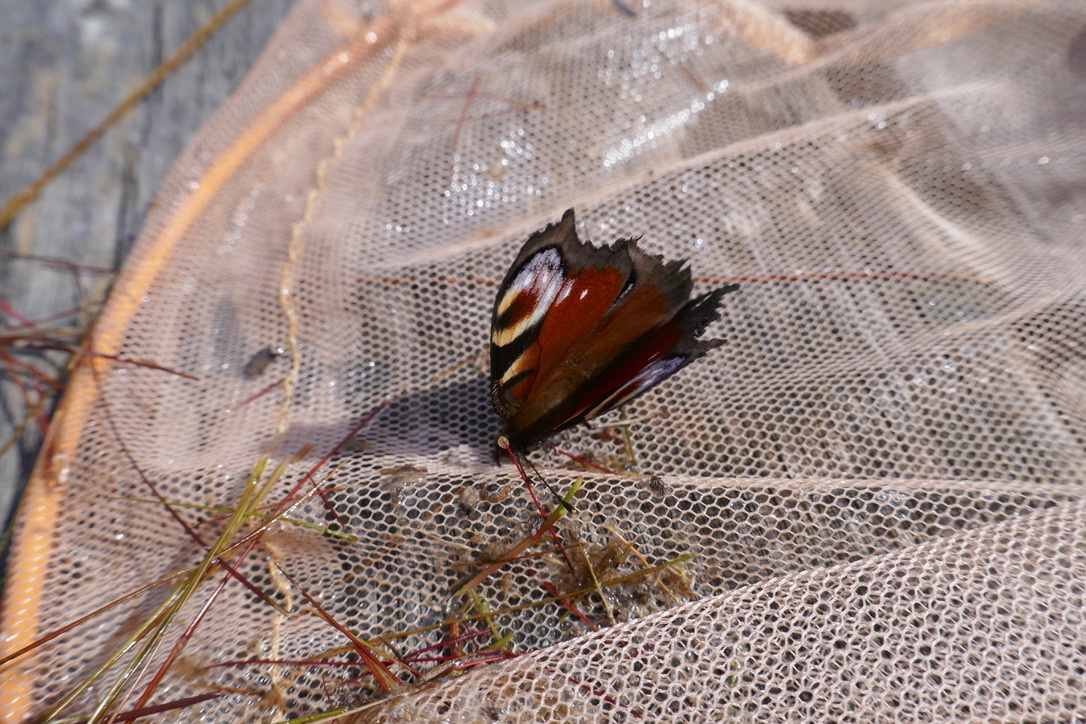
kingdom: Animalia
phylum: Arthropoda
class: Insecta
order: Lepidoptera
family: Nymphalidae
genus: Aglais
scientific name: Aglais io
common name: Peacock
